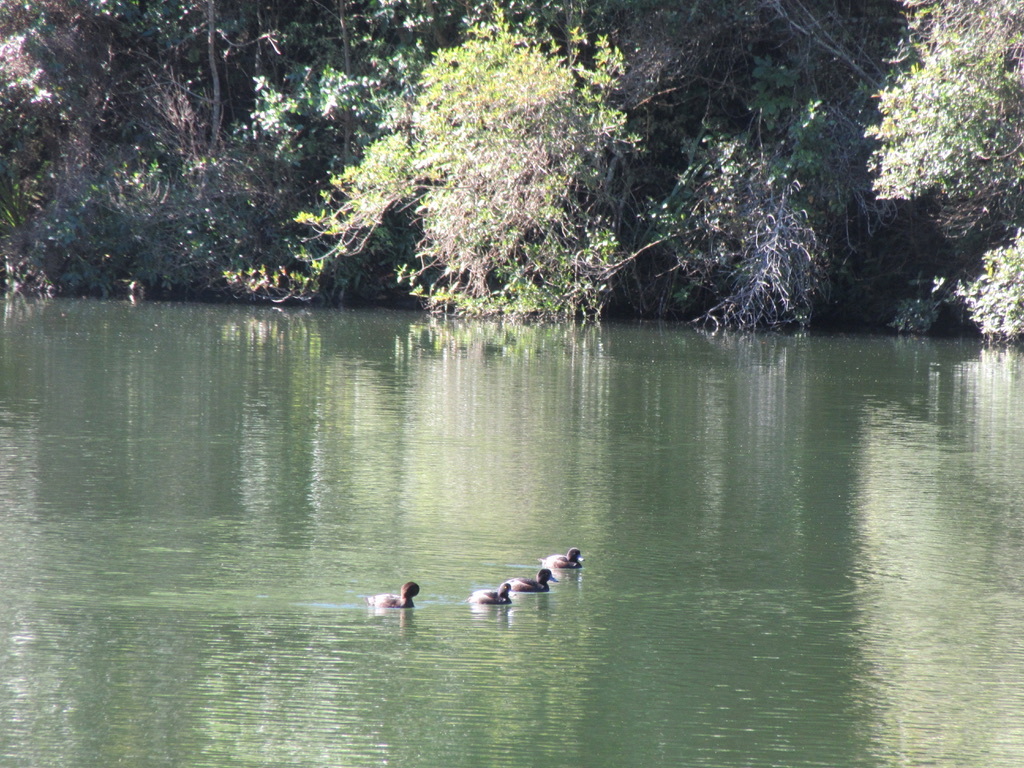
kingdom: Animalia
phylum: Chordata
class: Aves
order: Anseriformes
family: Anatidae
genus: Aythya
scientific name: Aythya novaeseelandiae
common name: New zealand scaup
